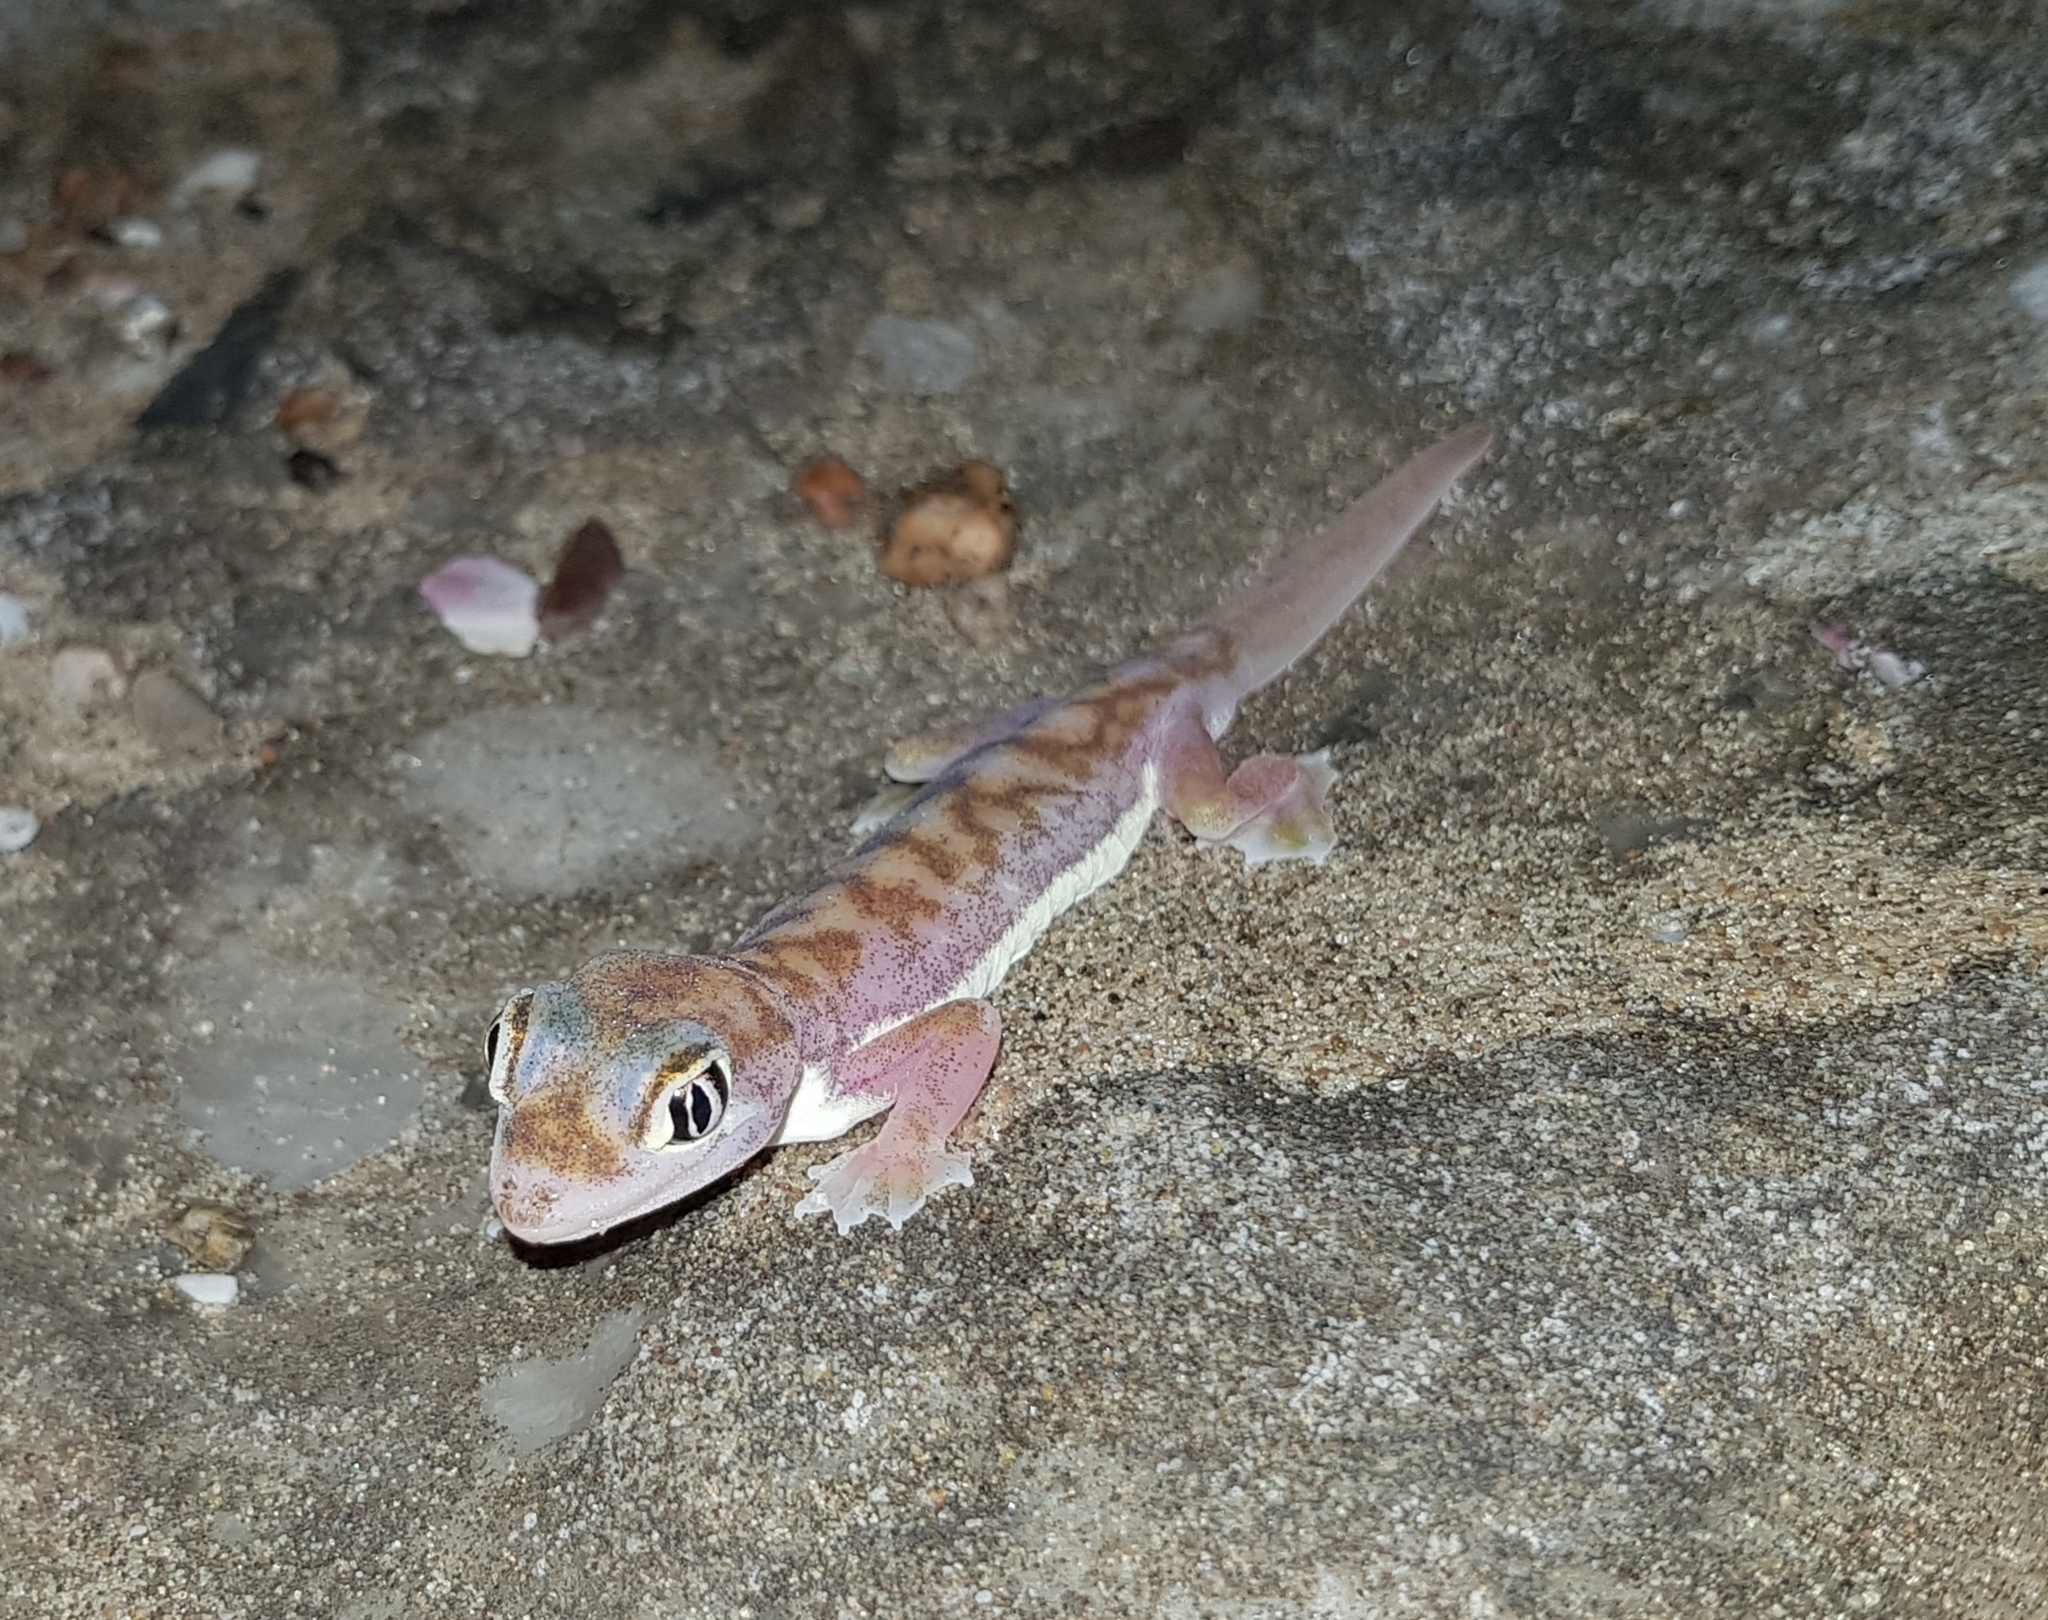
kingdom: Animalia
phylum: Chordata
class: Squamata
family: Gekkonidae
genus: Pachydactylus
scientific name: Pachydactylus rangei
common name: Namib sand gecko
